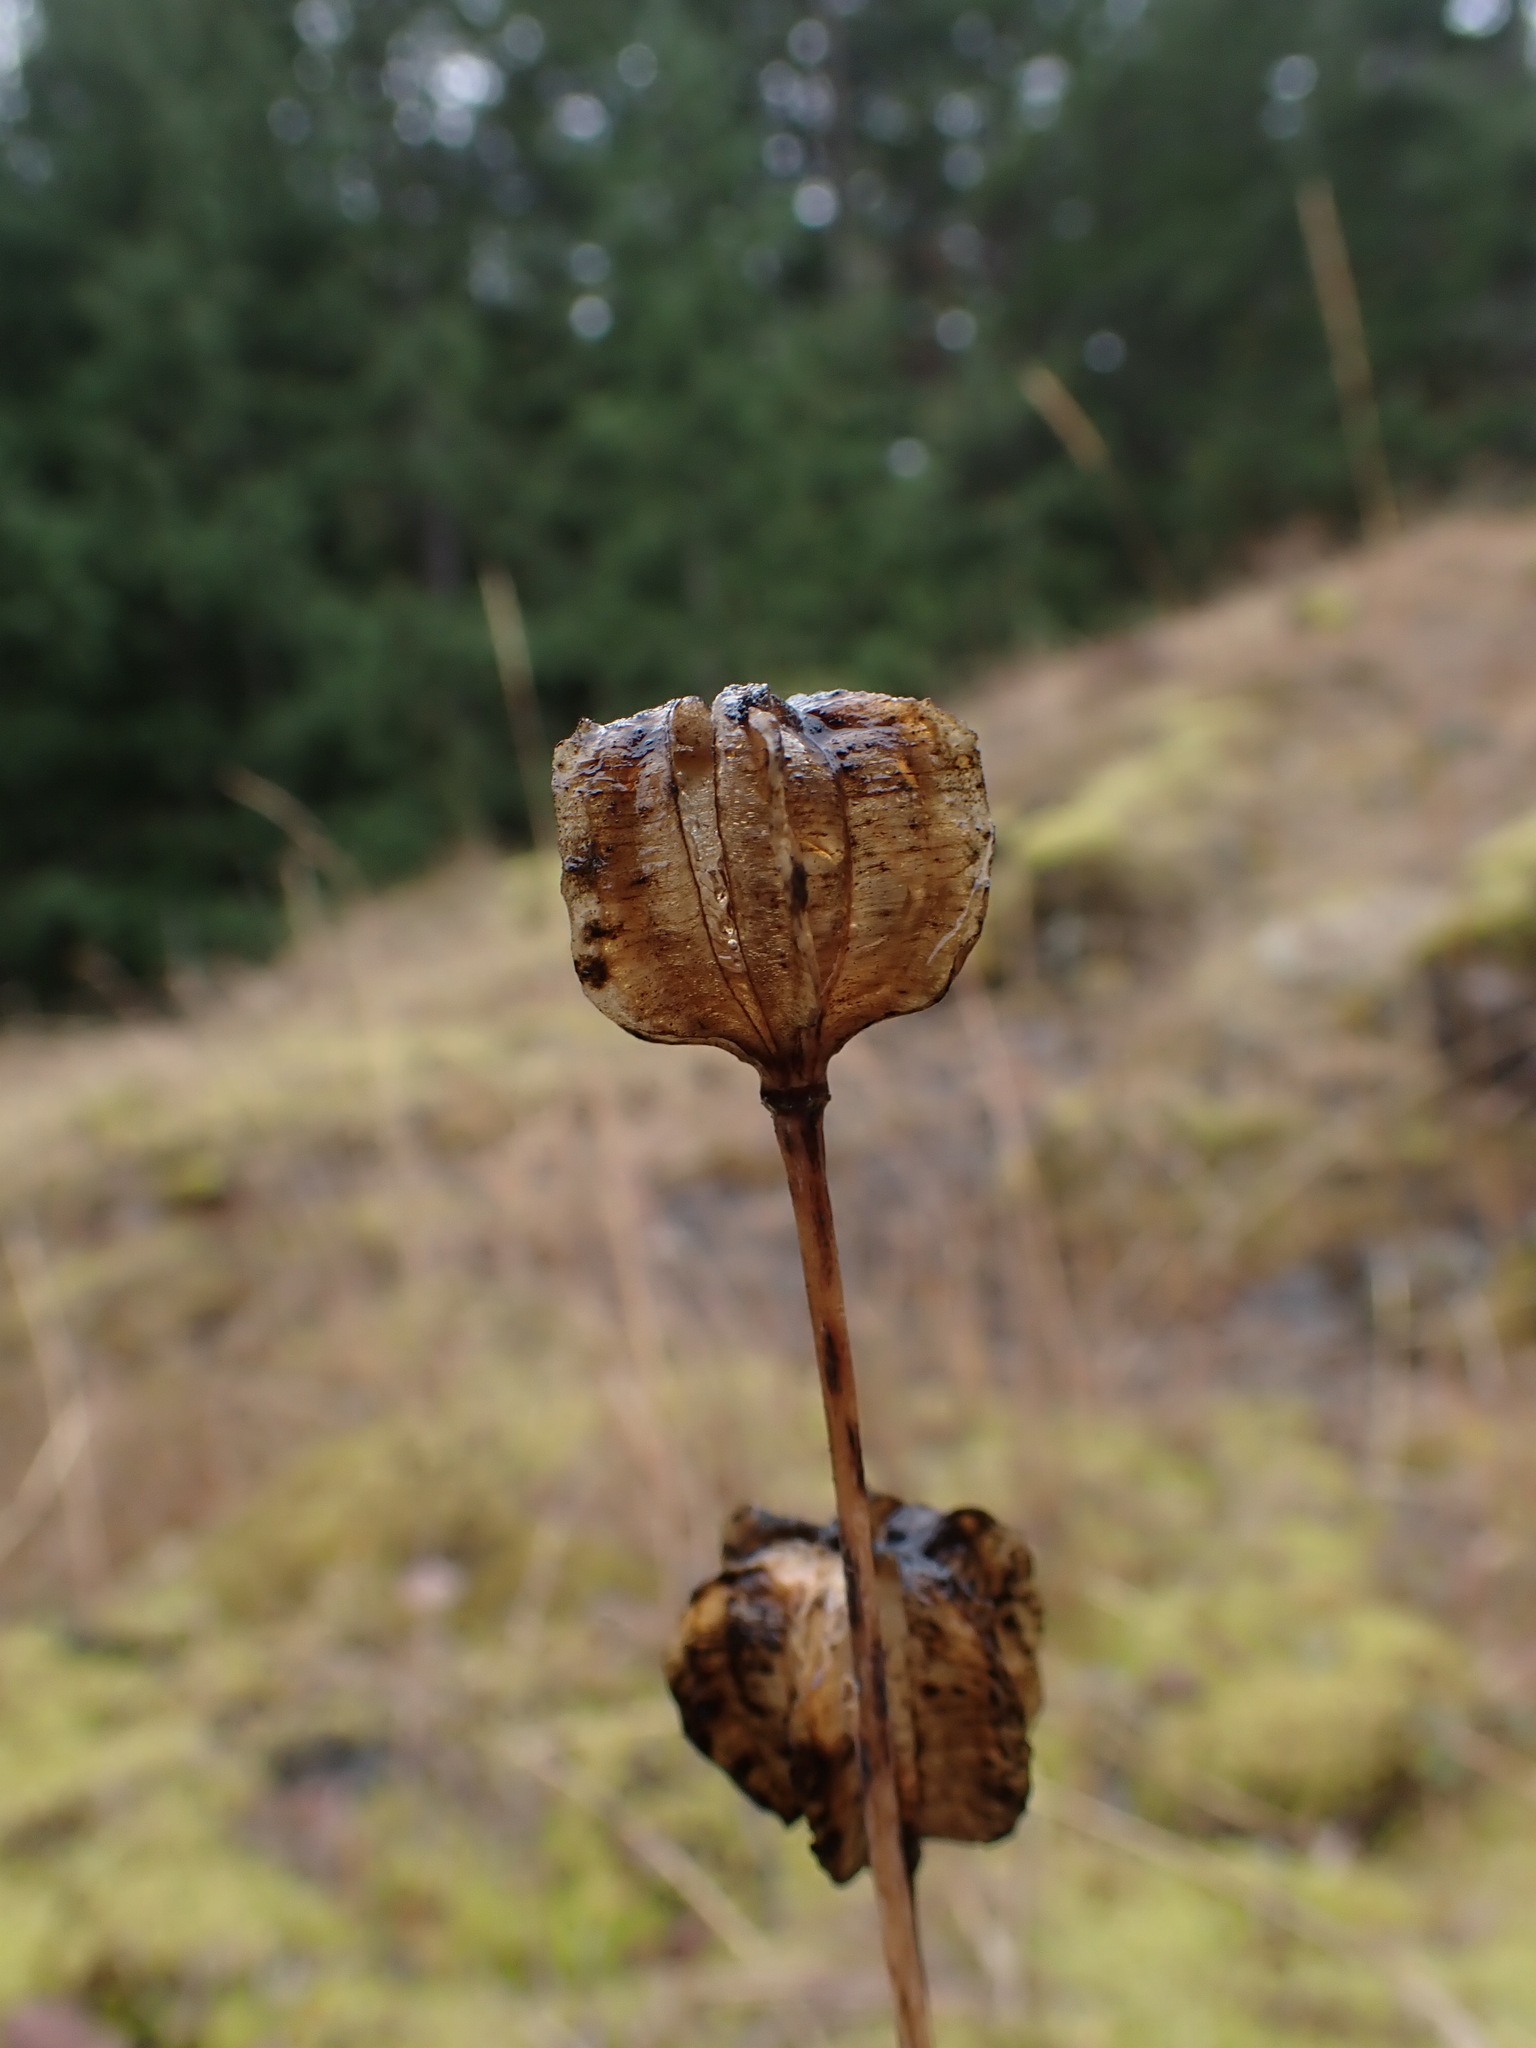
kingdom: Plantae
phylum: Tracheophyta
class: Liliopsida
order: Liliales
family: Liliaceae
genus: Fritillaria
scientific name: Fritillaria camschatcensis
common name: Kamchatka fritillary
